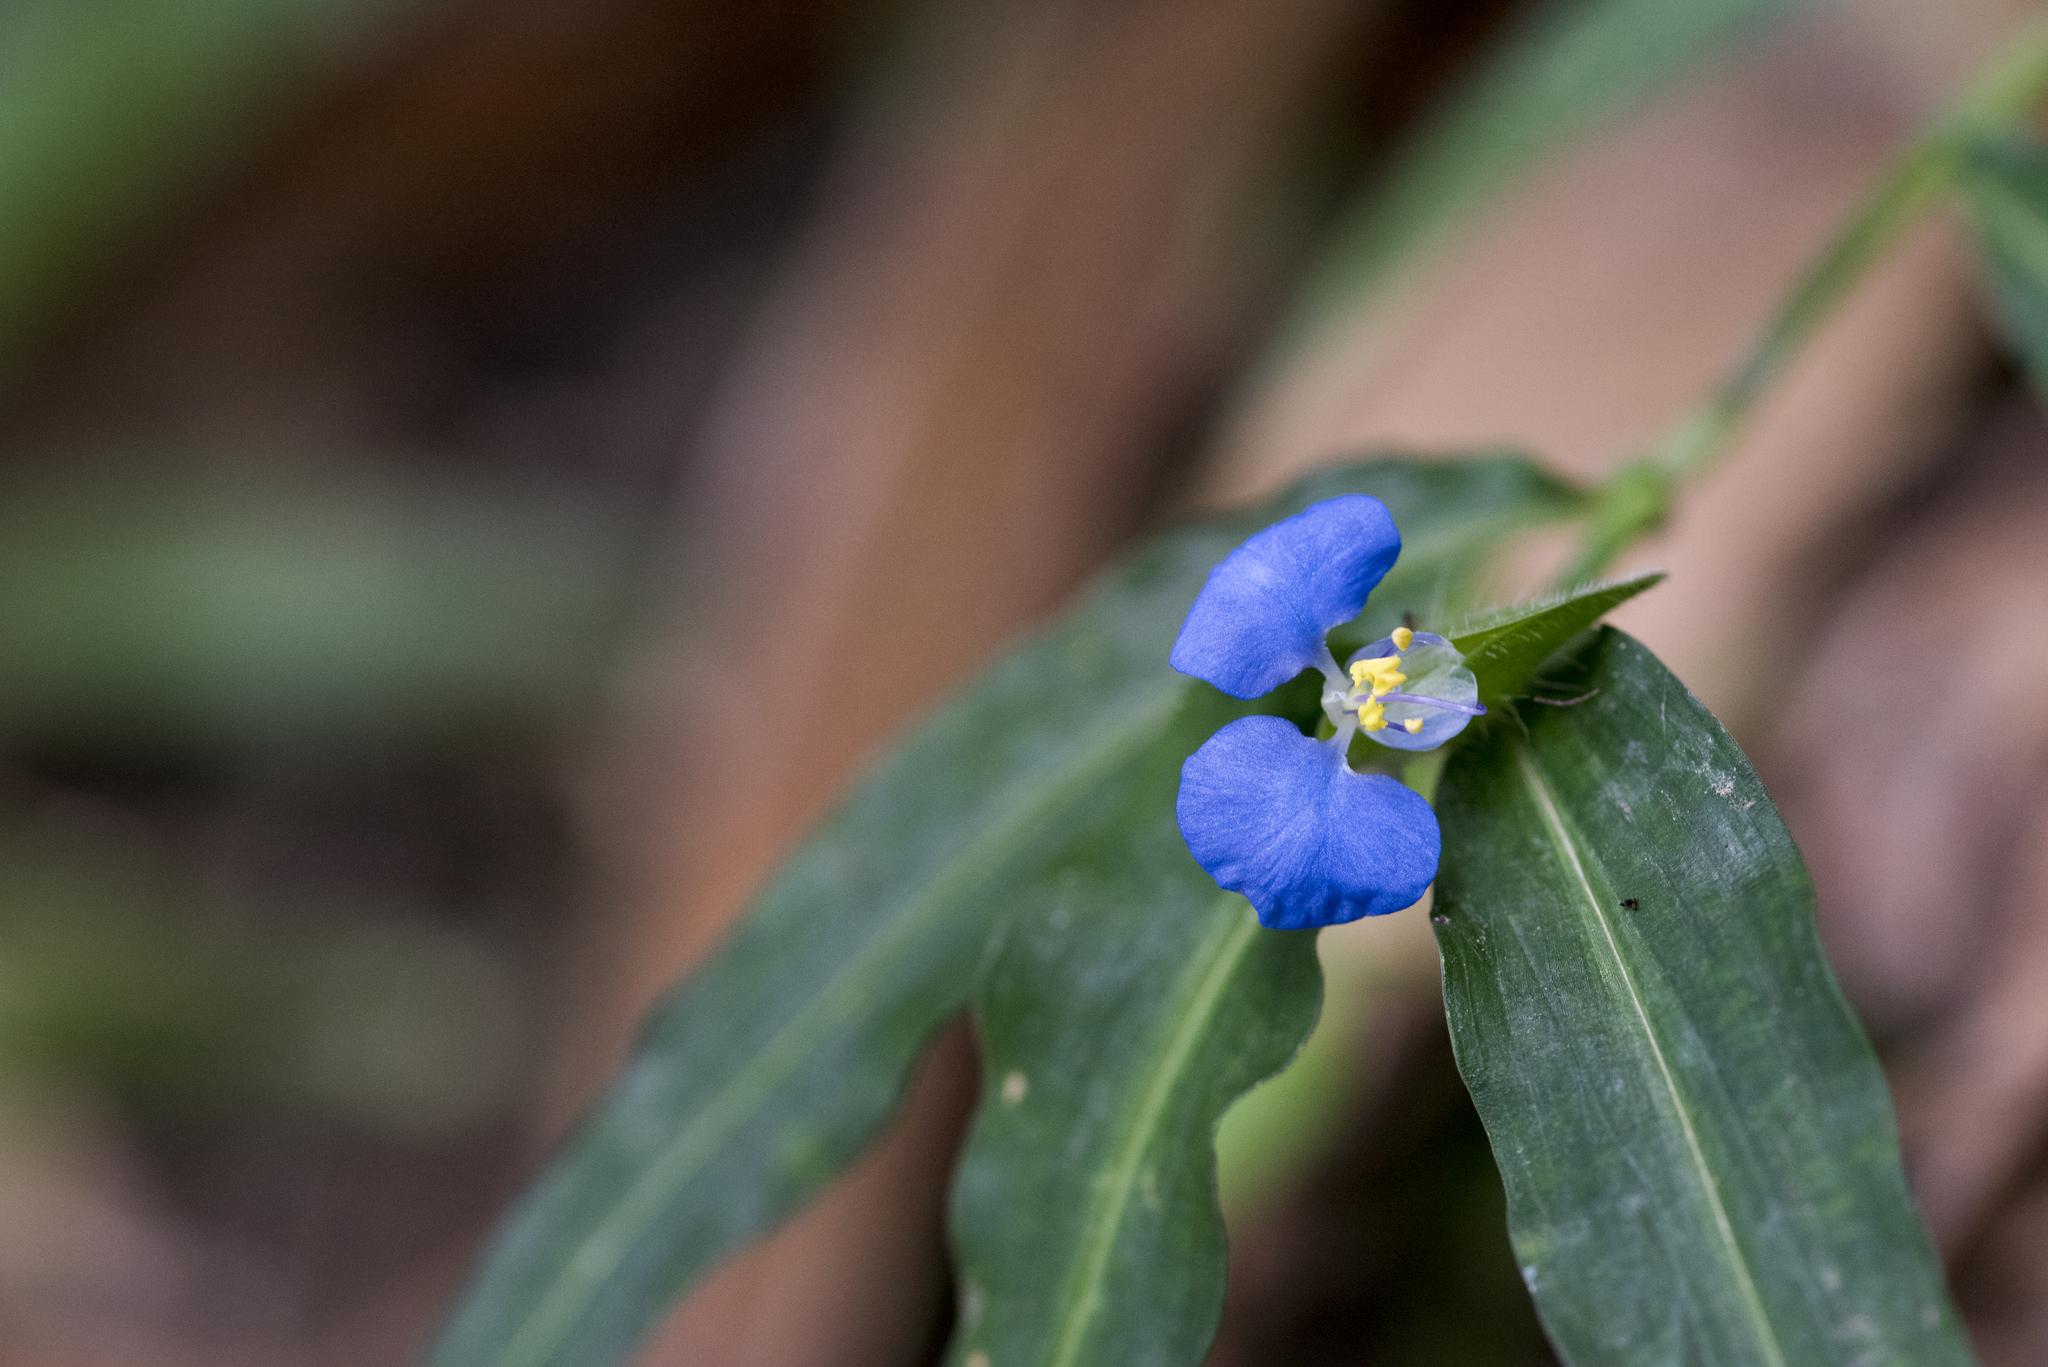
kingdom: Plantae
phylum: Tracheophyta
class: Liliopsida
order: Commelinales
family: Commelinaceae
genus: Commelina
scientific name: Commelina auriculata
